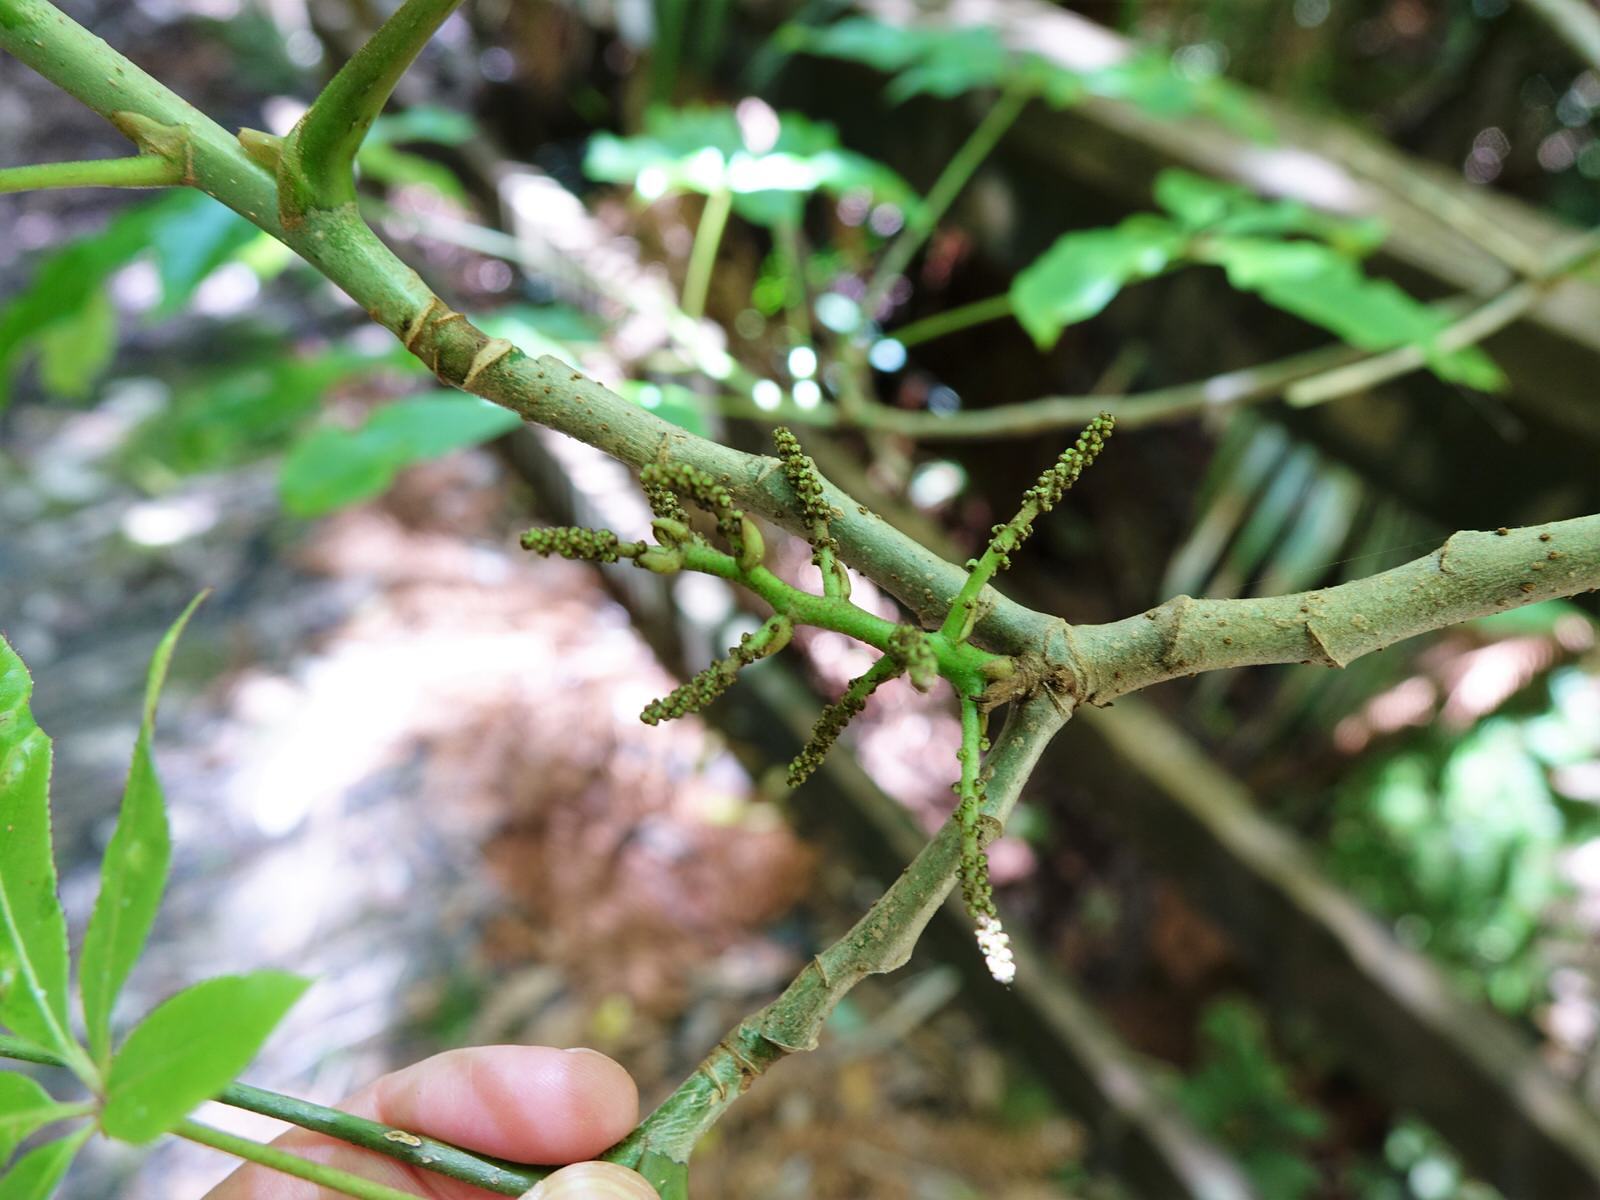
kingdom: Plantae
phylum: Tracheophyta
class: Magnoliopsida
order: Apiales
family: Araliaceae
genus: Schefflera
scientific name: Schefflera digitata
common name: Pate
